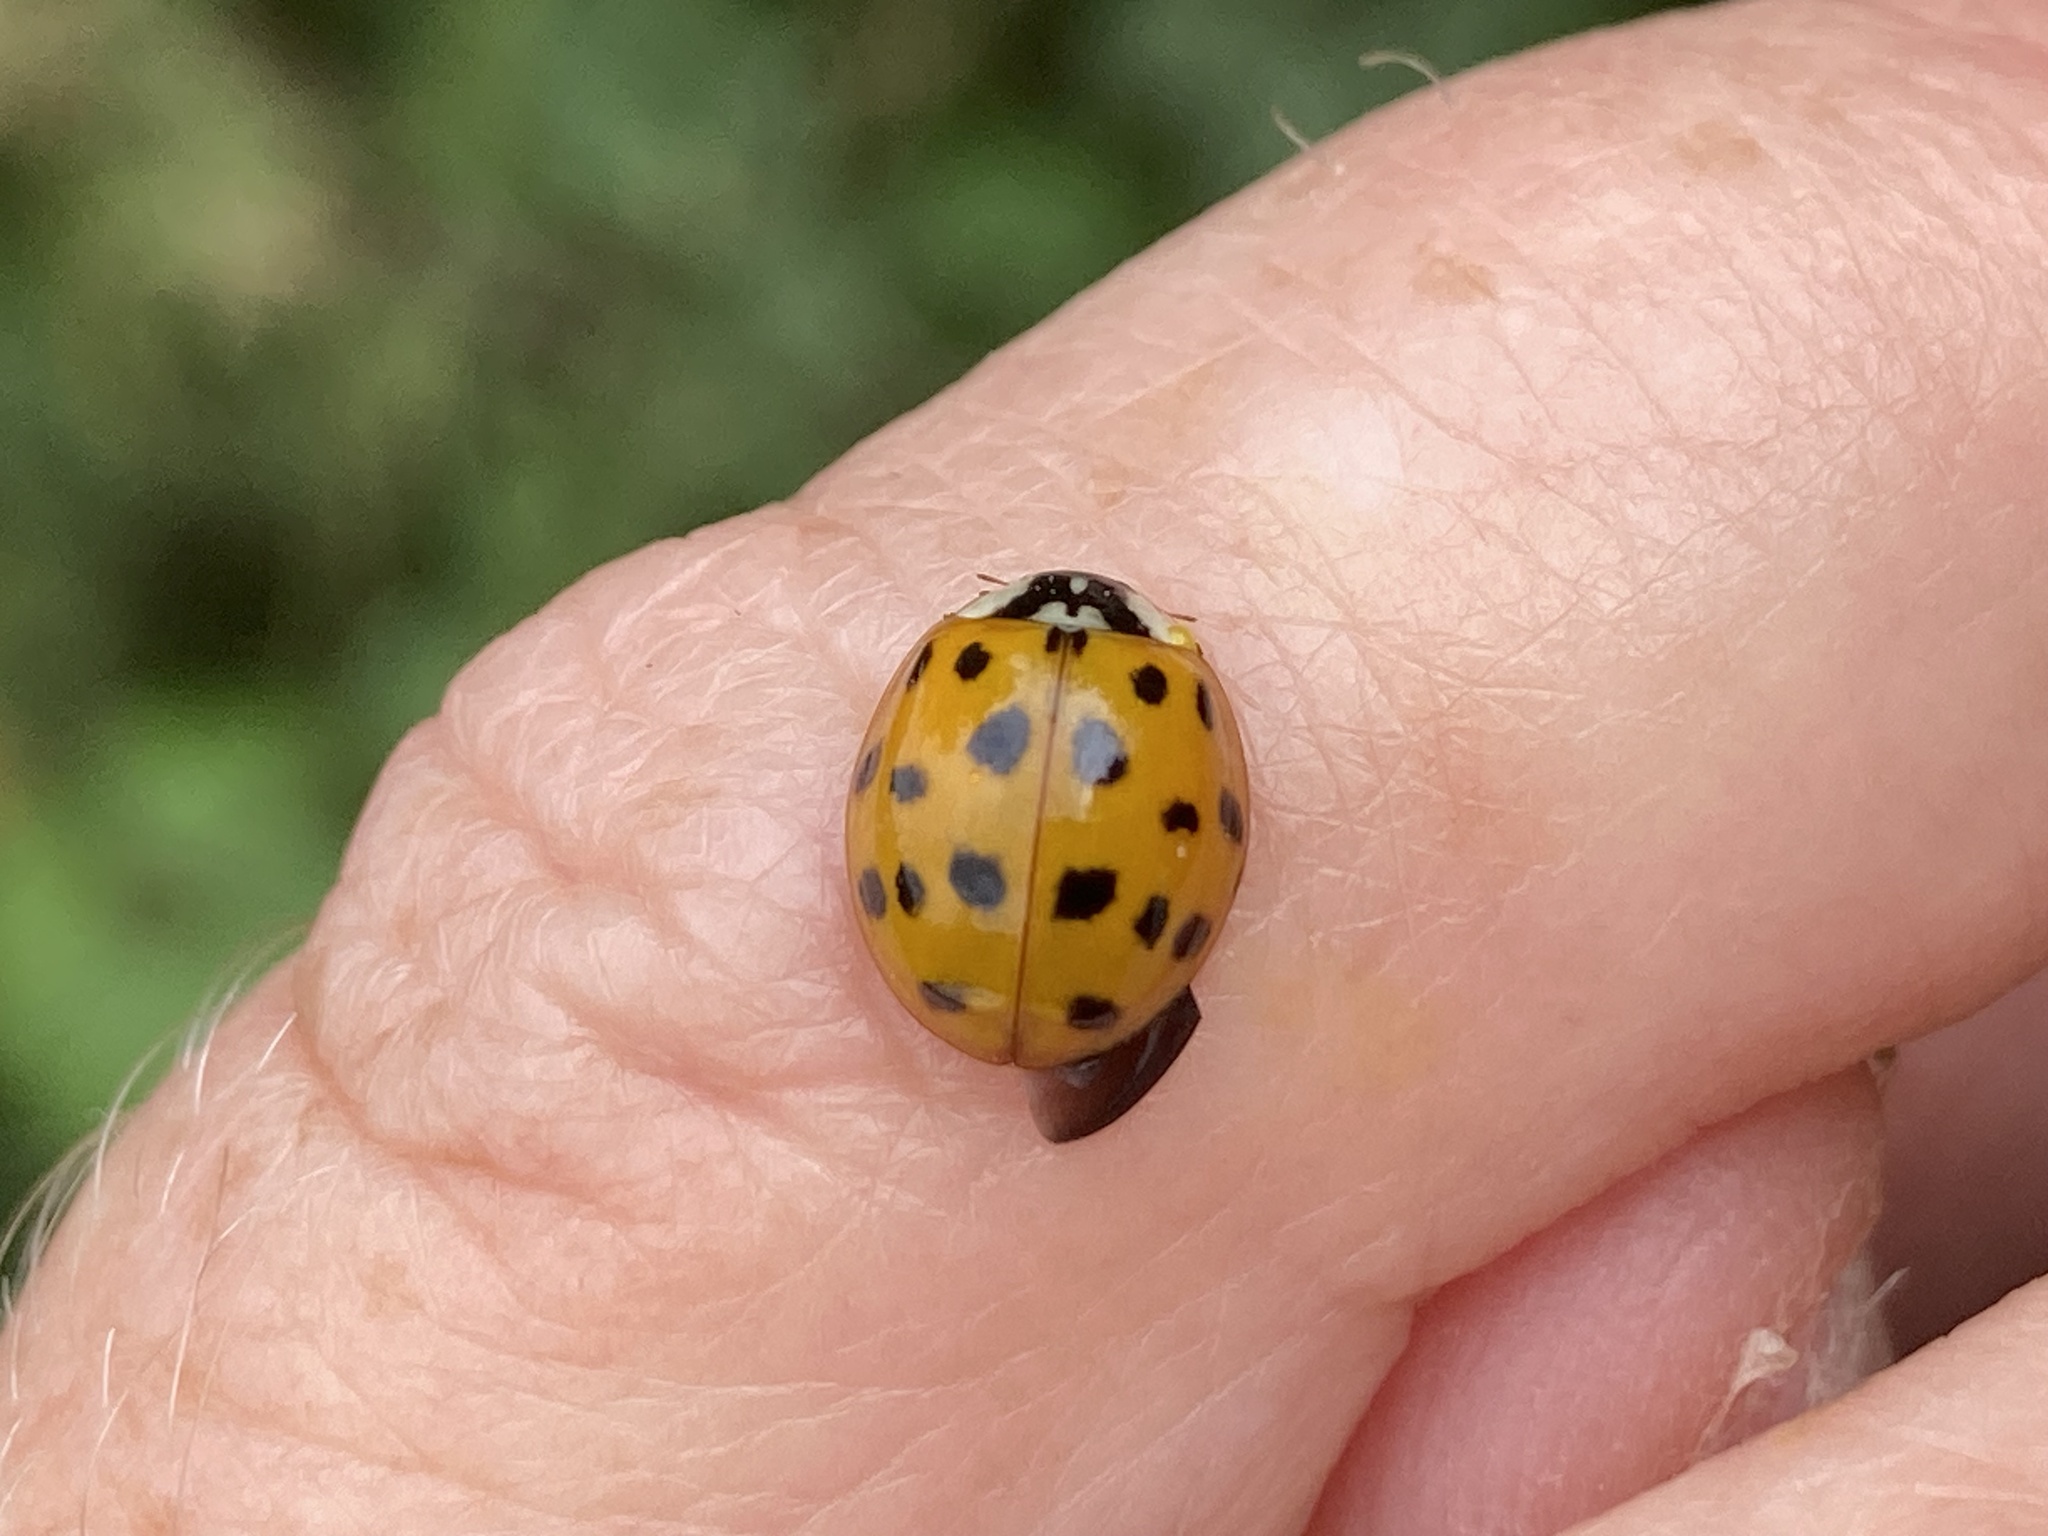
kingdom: Animalia
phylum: Arthropoda
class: Insecta
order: Coleoptera
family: Coccinellidae
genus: Harmonia
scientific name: Harmonia axyridis
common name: Harlequin ladybird
